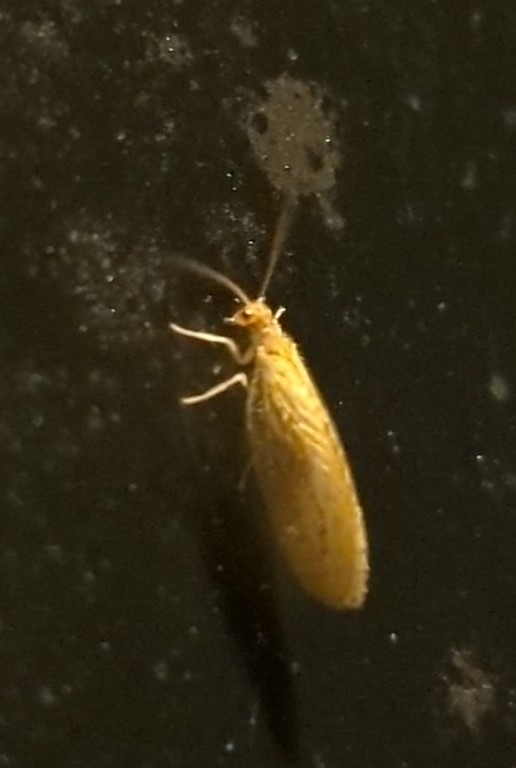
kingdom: Animalia
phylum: Arthropoda
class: Insecta
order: Neuroptera
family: Hemerobiidae
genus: Micromus
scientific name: Micromus subanticus
